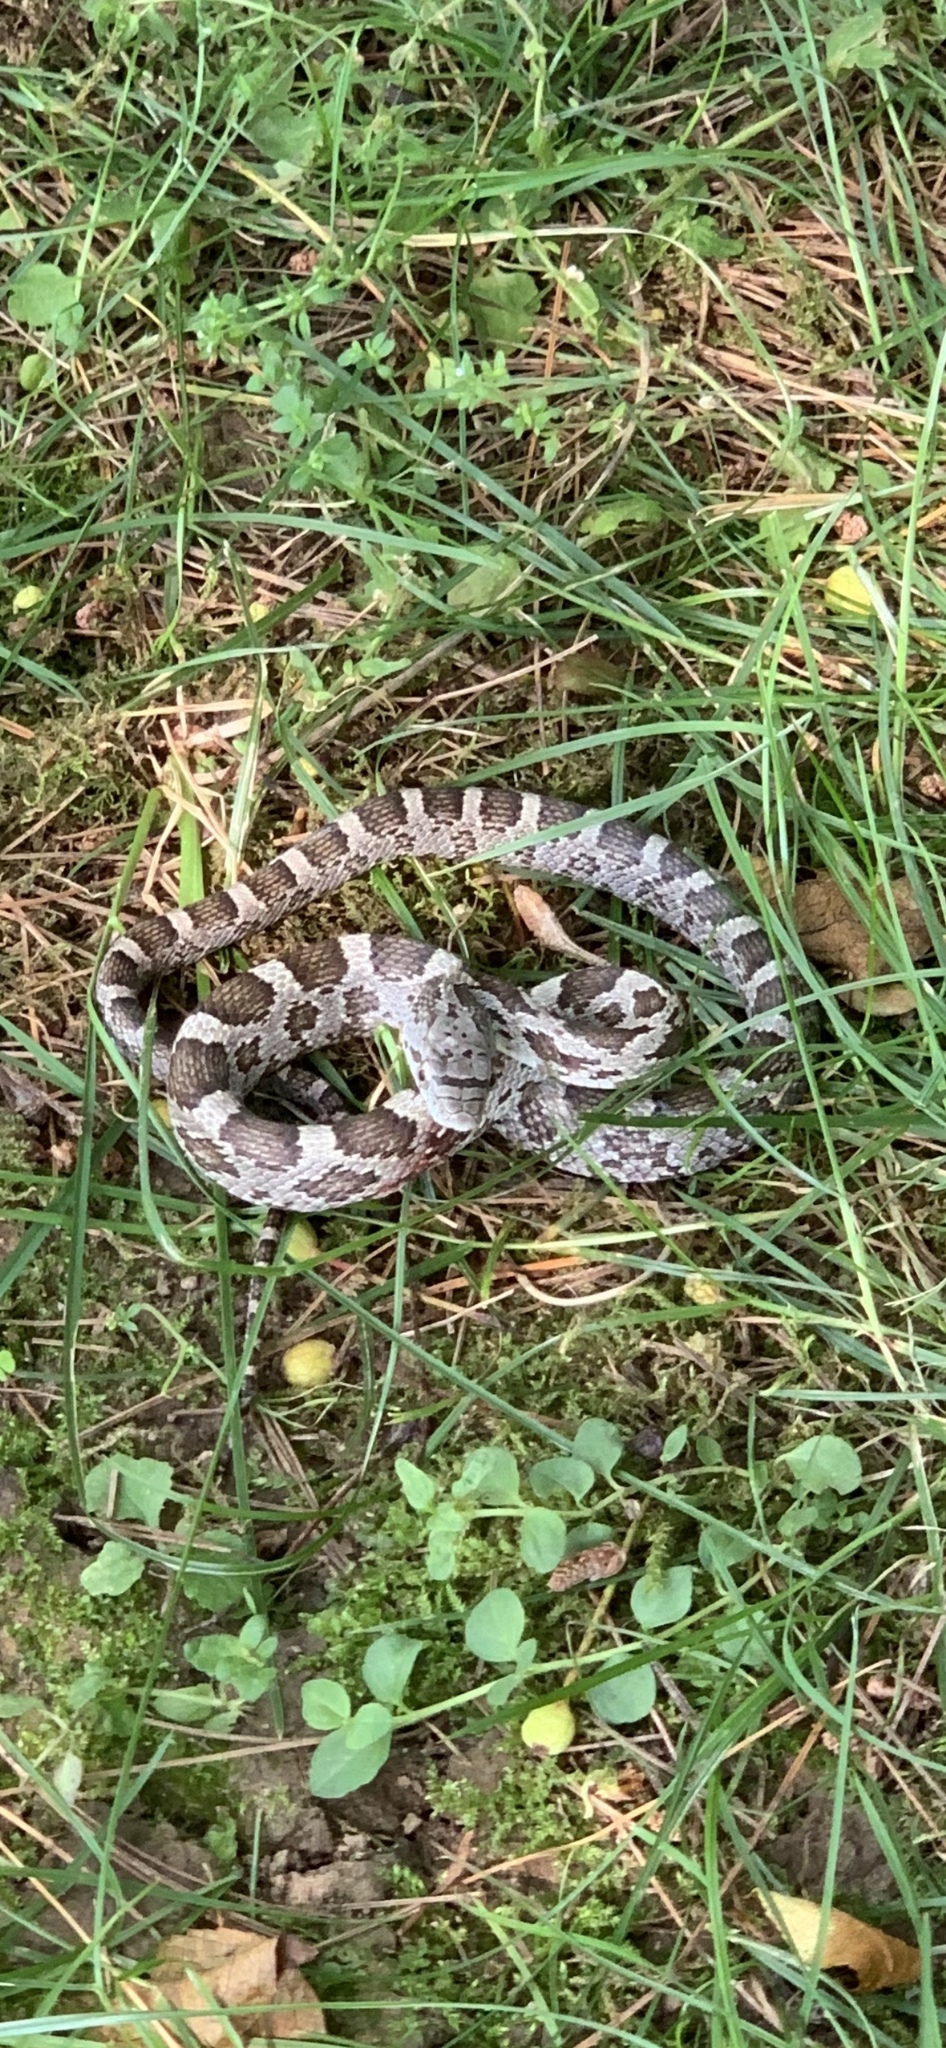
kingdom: Animalia
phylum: Chordata
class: Squamata
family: Colubridae
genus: Pantherophis
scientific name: Pantherophis spiloides
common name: Gray rat snake
